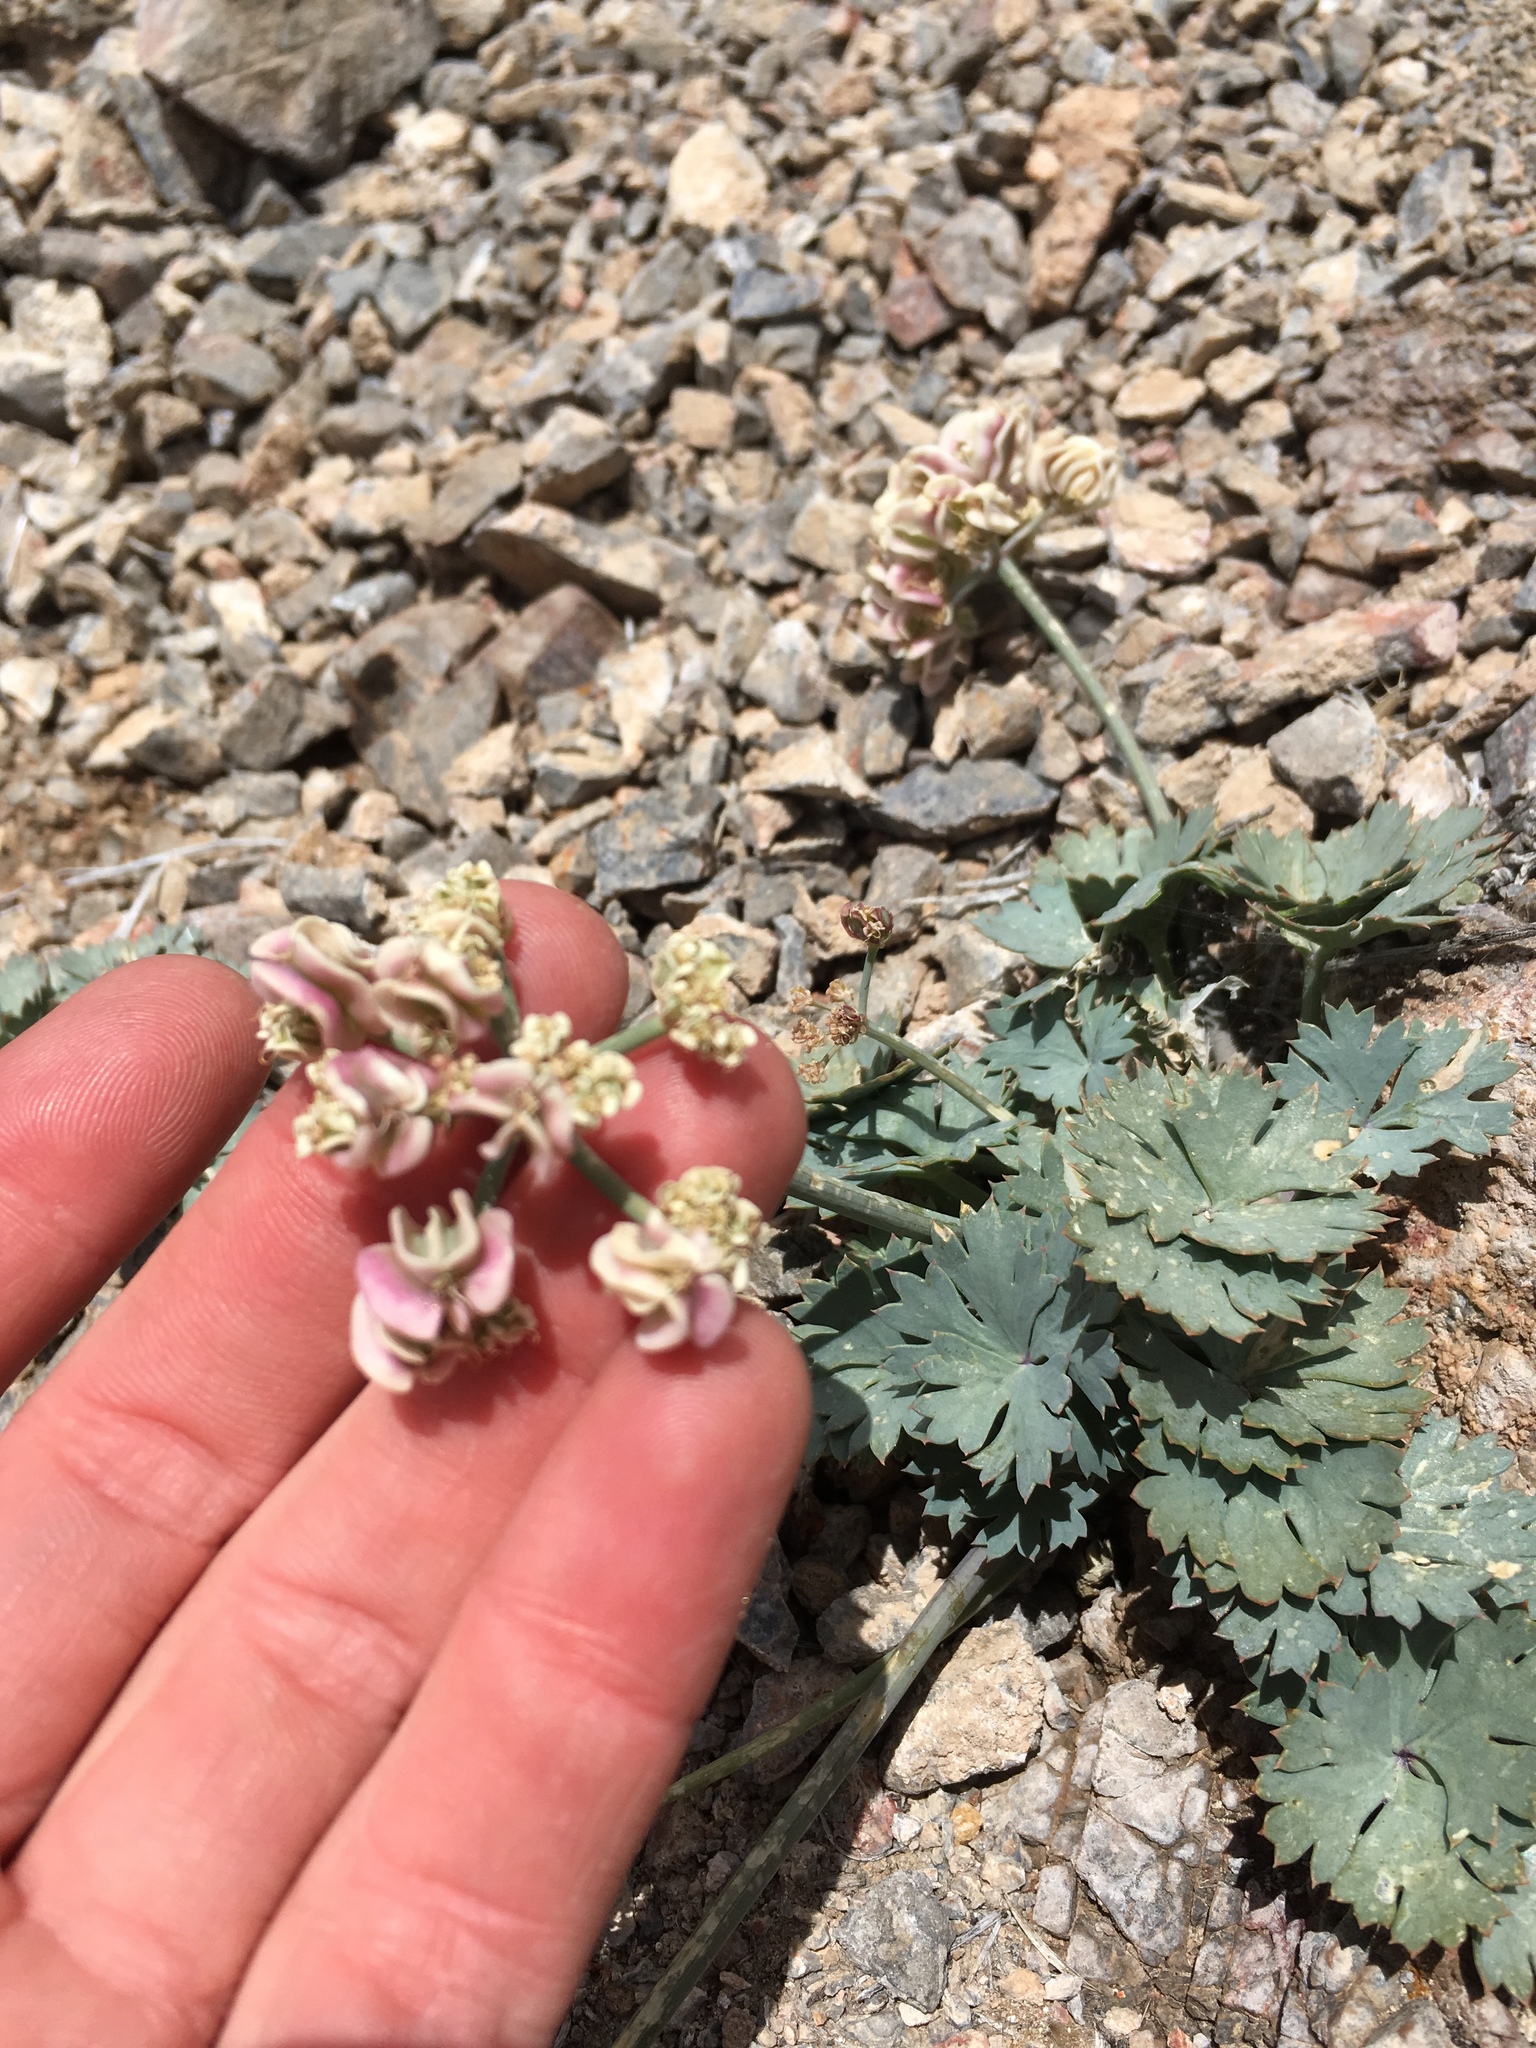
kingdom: Plantae
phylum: Tracheophyta
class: Magnoliopsida
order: Apiales
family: Apiaceae
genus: Cymopterus
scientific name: Cymopterus gilmanii
